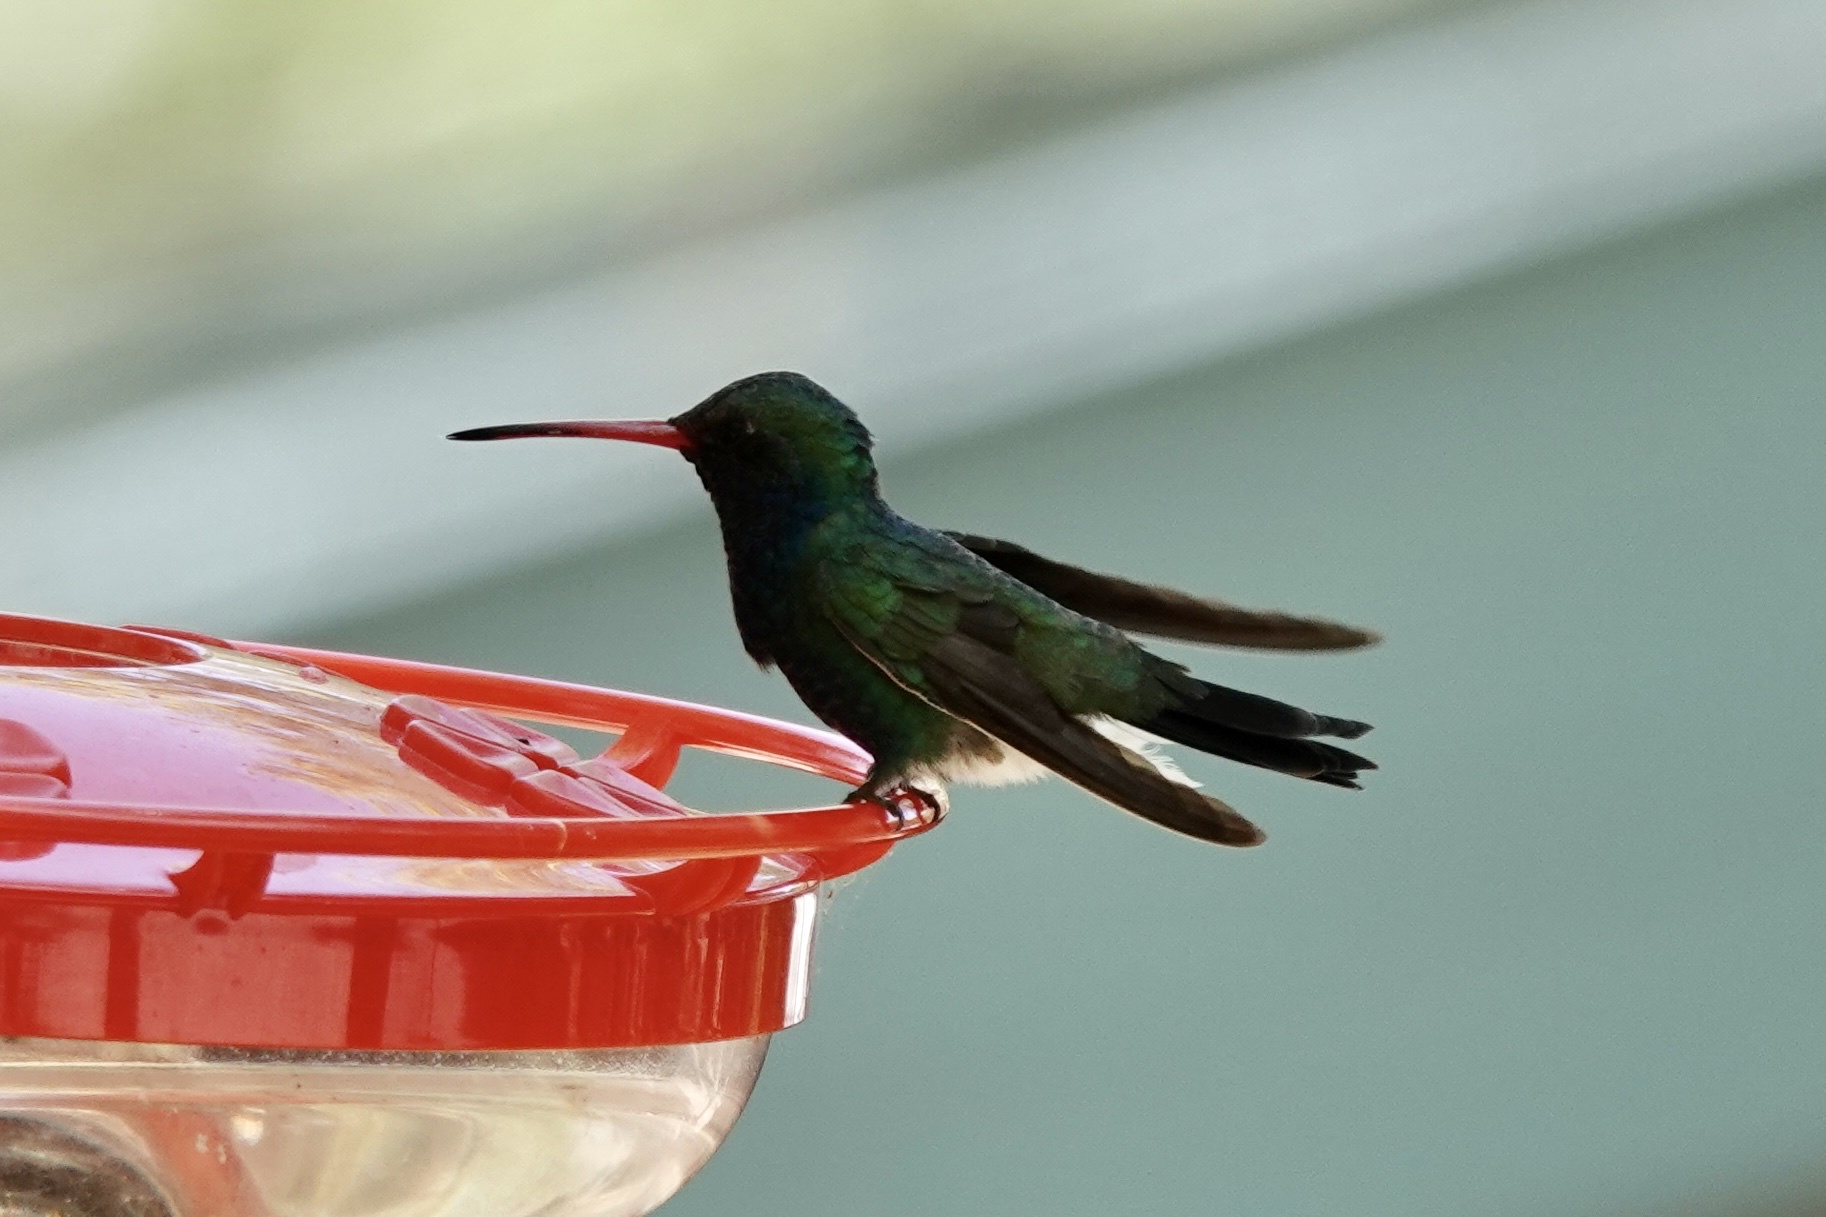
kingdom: Animalia
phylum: Chordata
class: Aves
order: Apodiformes
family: Trochilidae
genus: Cynanthus
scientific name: Cynanthus latirostris
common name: Broad-billed hummingbird
